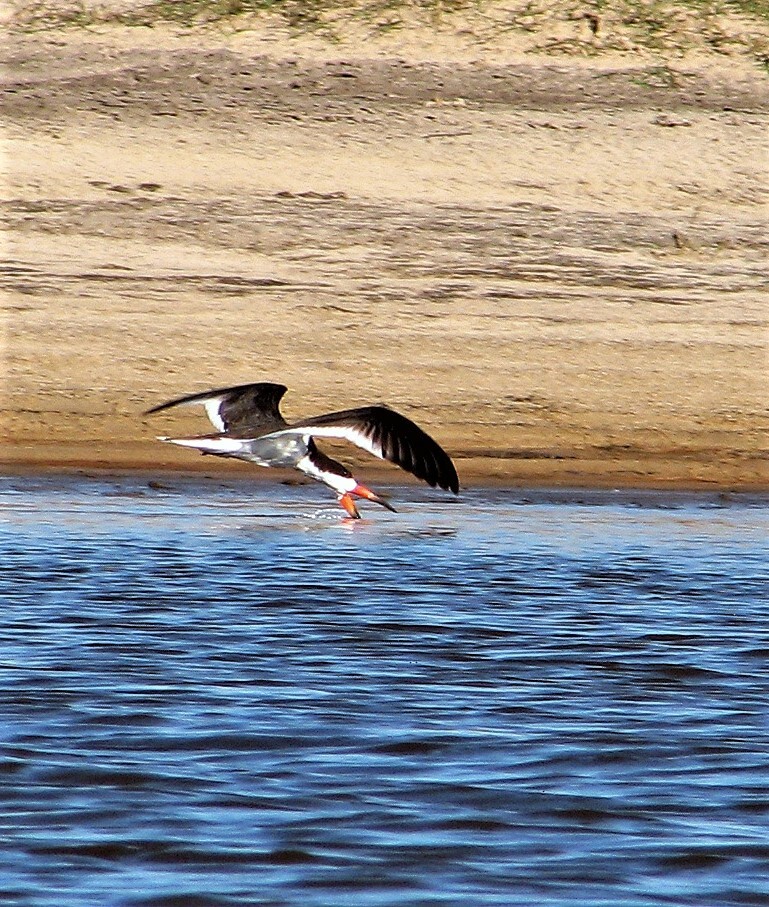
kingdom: Animalia
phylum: Chordata
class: Aves
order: Charadriiformes
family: Laridae
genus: Rynchops
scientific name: Rynchops niger
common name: Black skimmer
